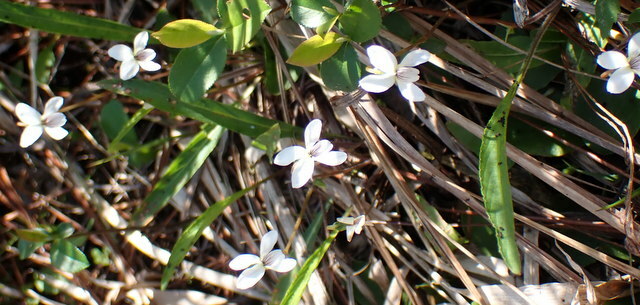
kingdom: Plantae
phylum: Tracheophyta
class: Magnoliopsida
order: Malpighiales
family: Violaceae
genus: Viola
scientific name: Viola lanceolata
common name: Bog white violet
